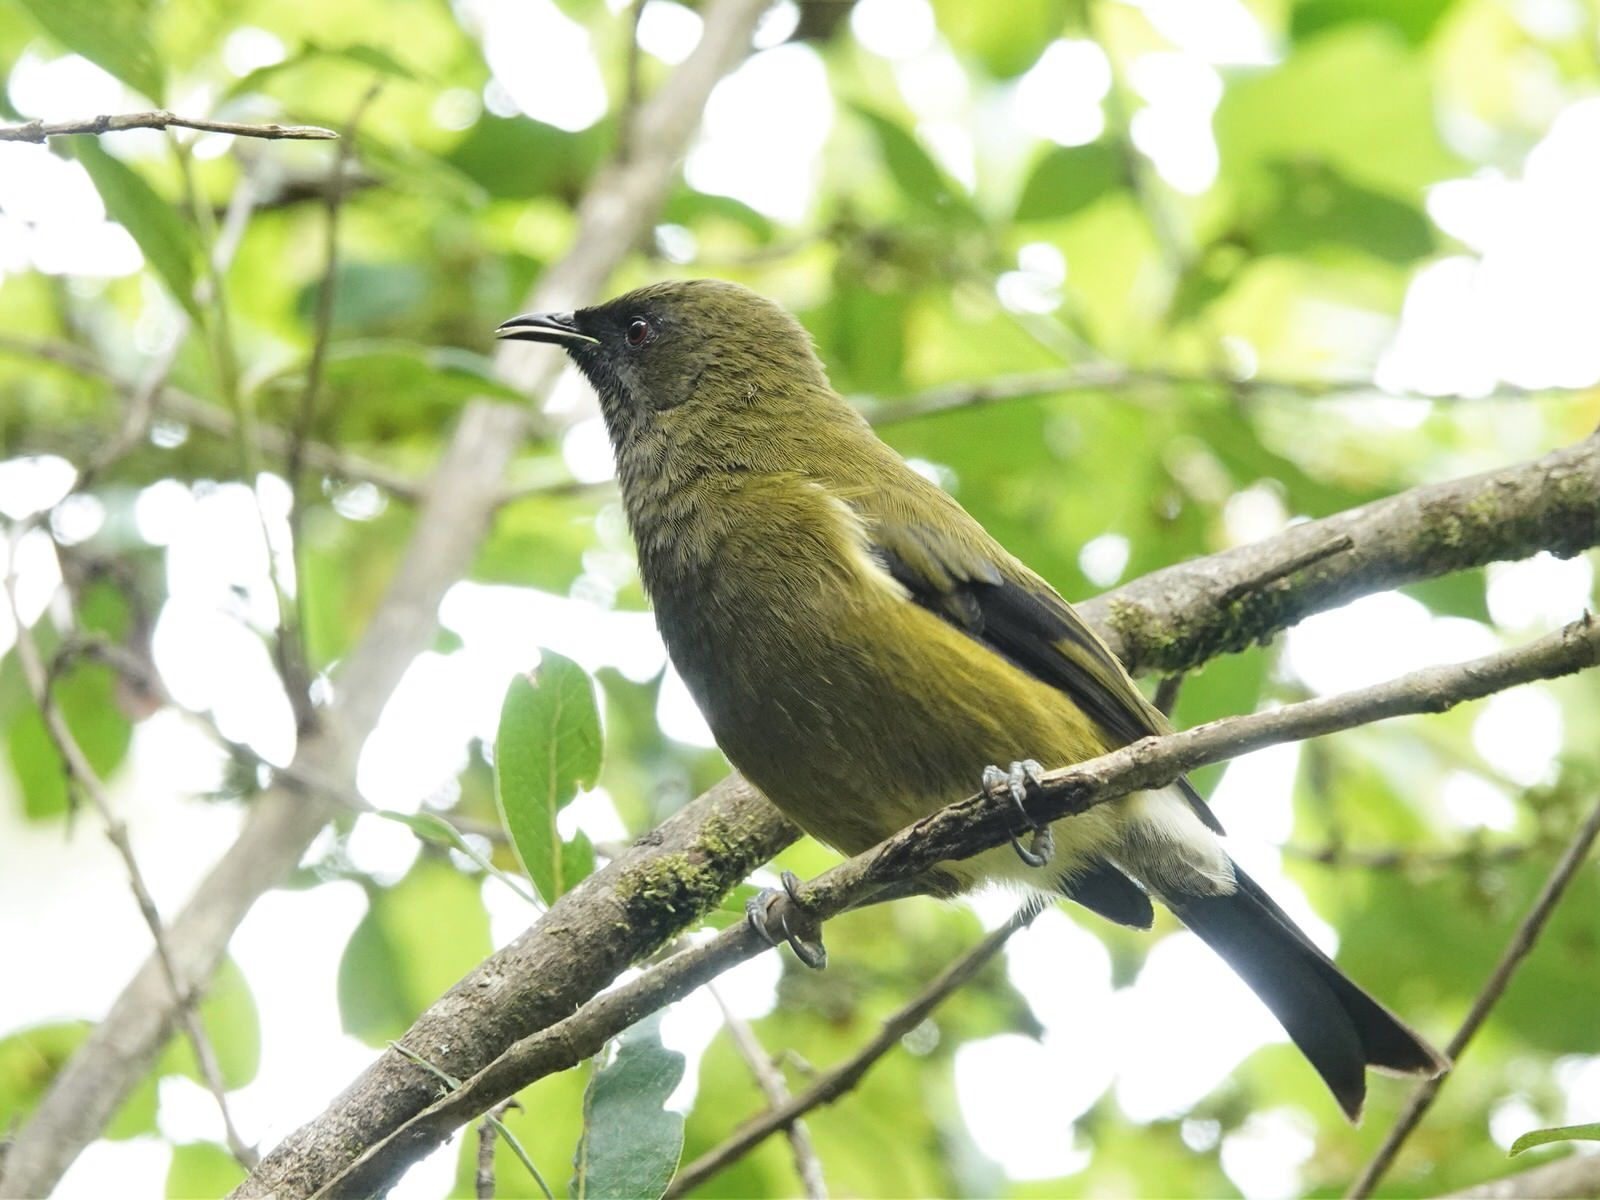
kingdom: Animalia
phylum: Chordata
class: Aves
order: Passeriformes
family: Meliphagidae
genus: Anthornis
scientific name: Anthornis melanura
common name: New zealand bellbird
